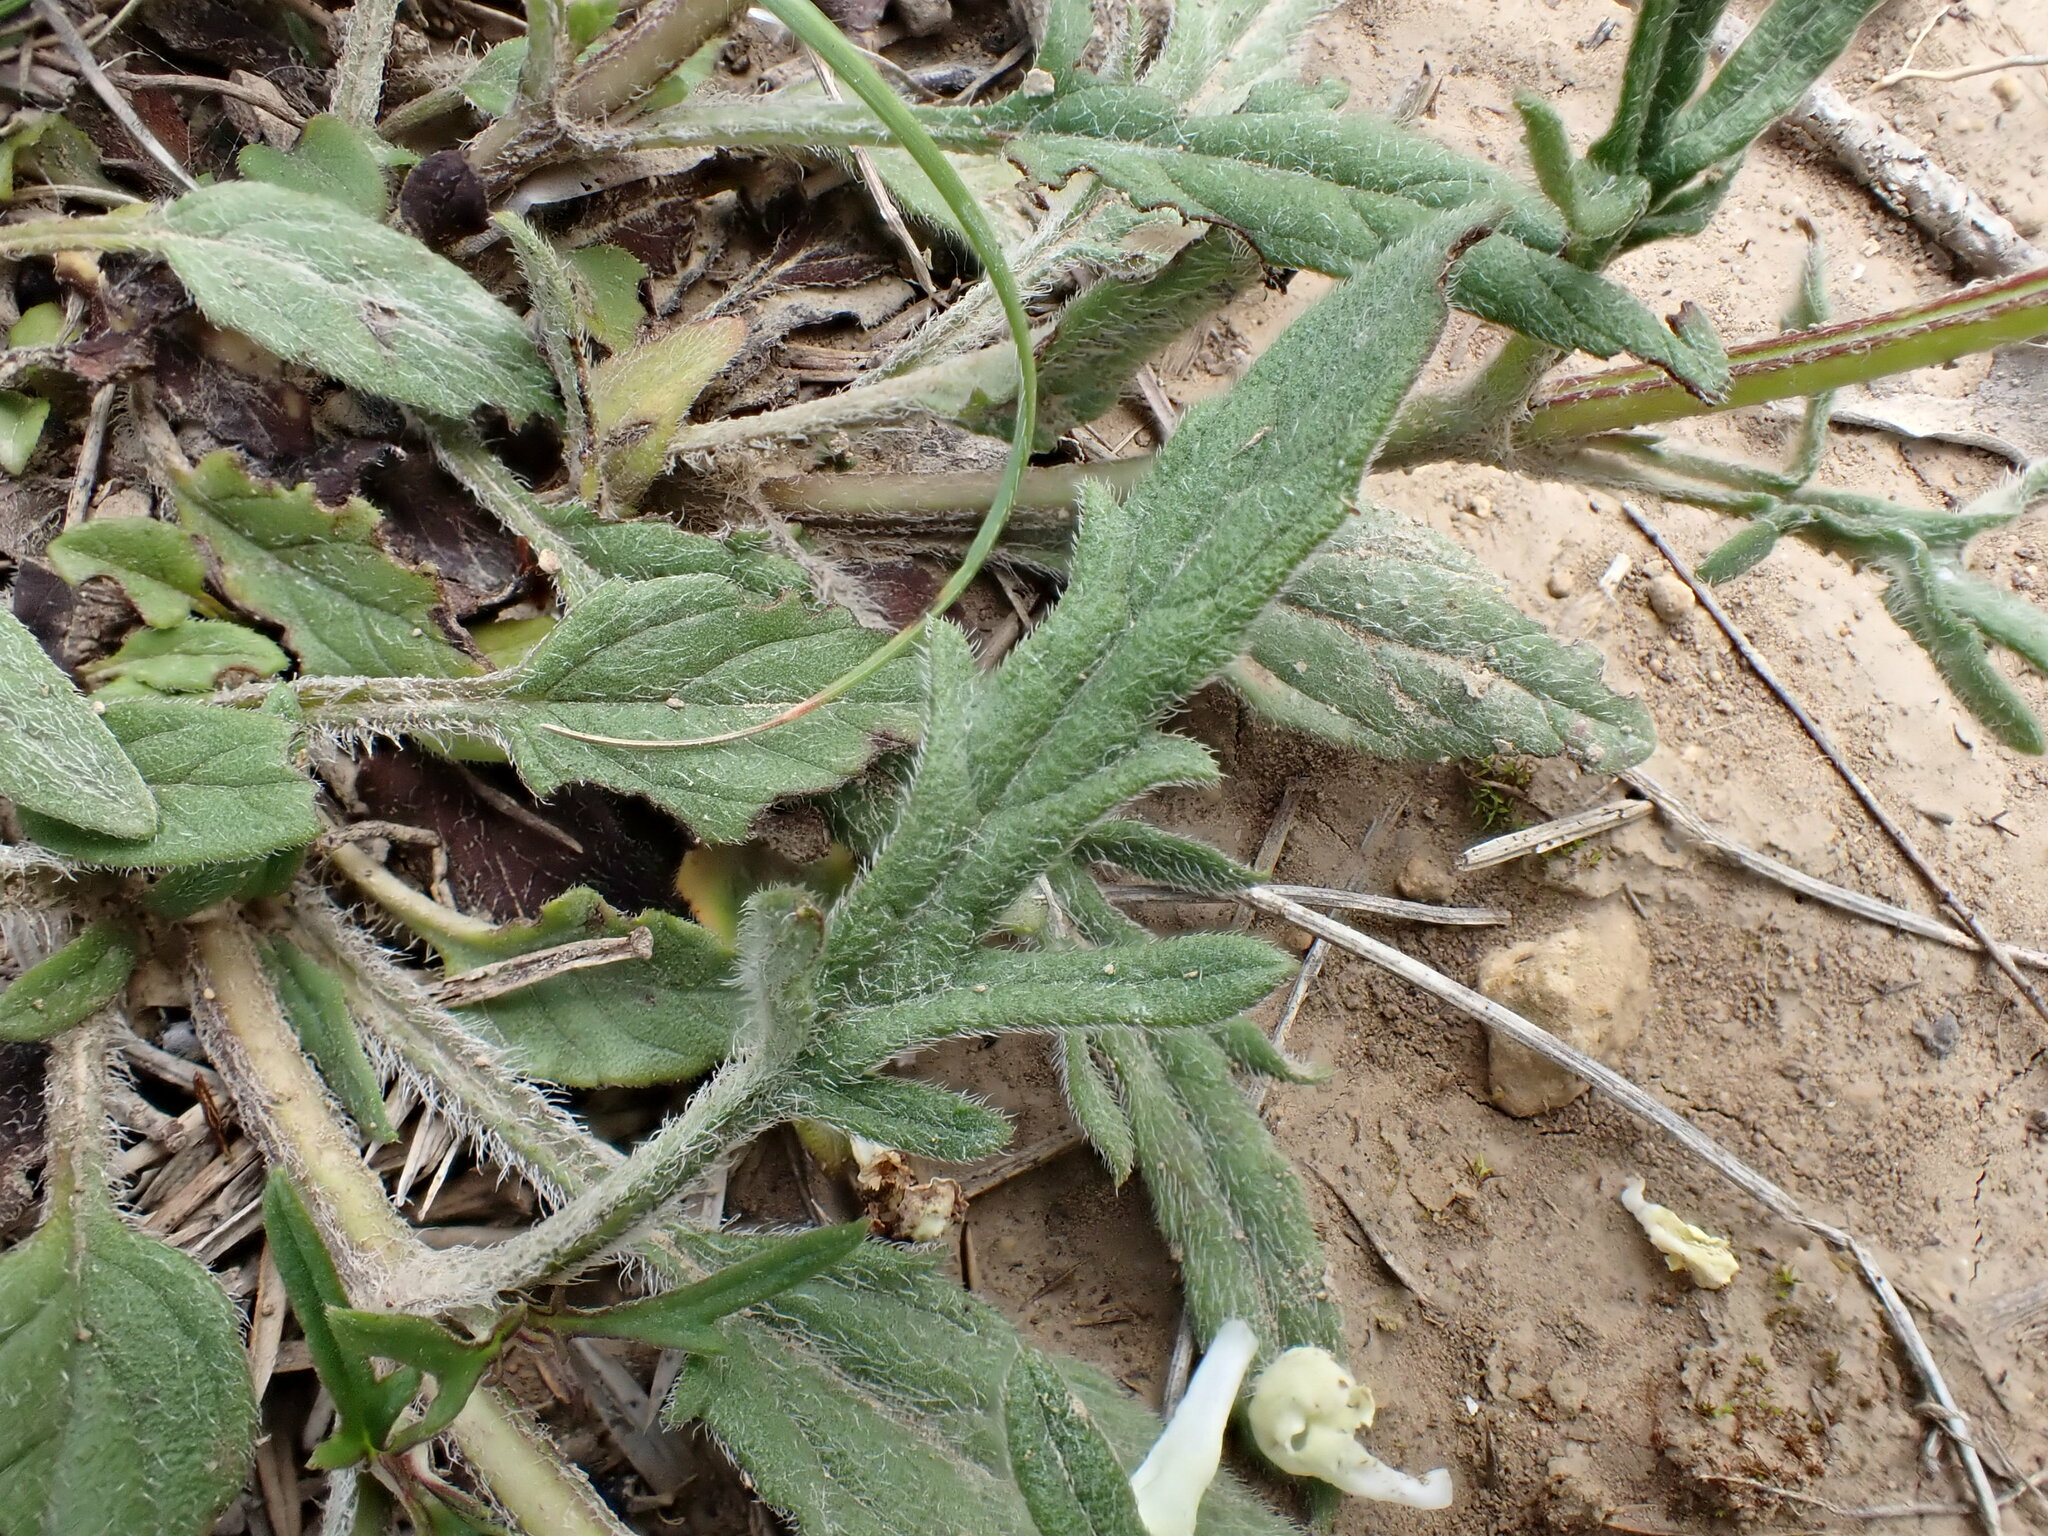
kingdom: Plantae
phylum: Tracheophyta
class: Magnoliopsida
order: Lamiales
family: Lamiaceae
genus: Prunella
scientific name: Prunella laciniata
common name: Cut-leaved selfheal
